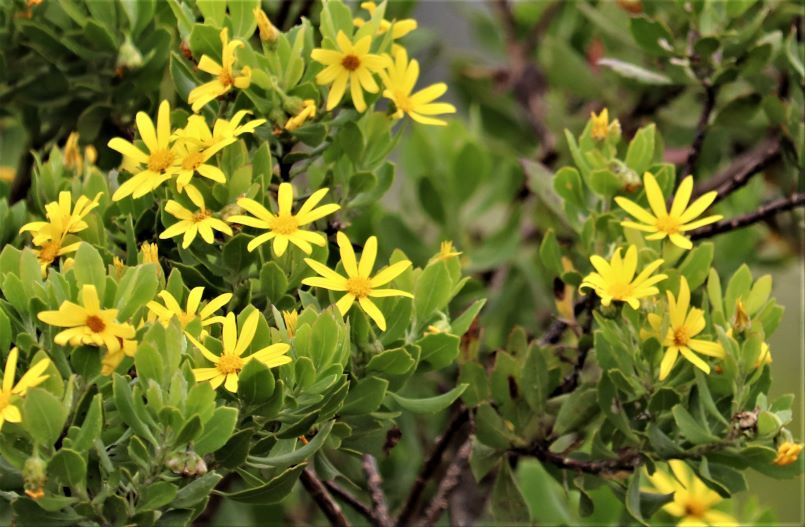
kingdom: Plantae
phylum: Tracheophyta
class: Magnoliopsida
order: Asterales
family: Asteraceae
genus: Osteospermum
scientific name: Osteospermum moniliferum
